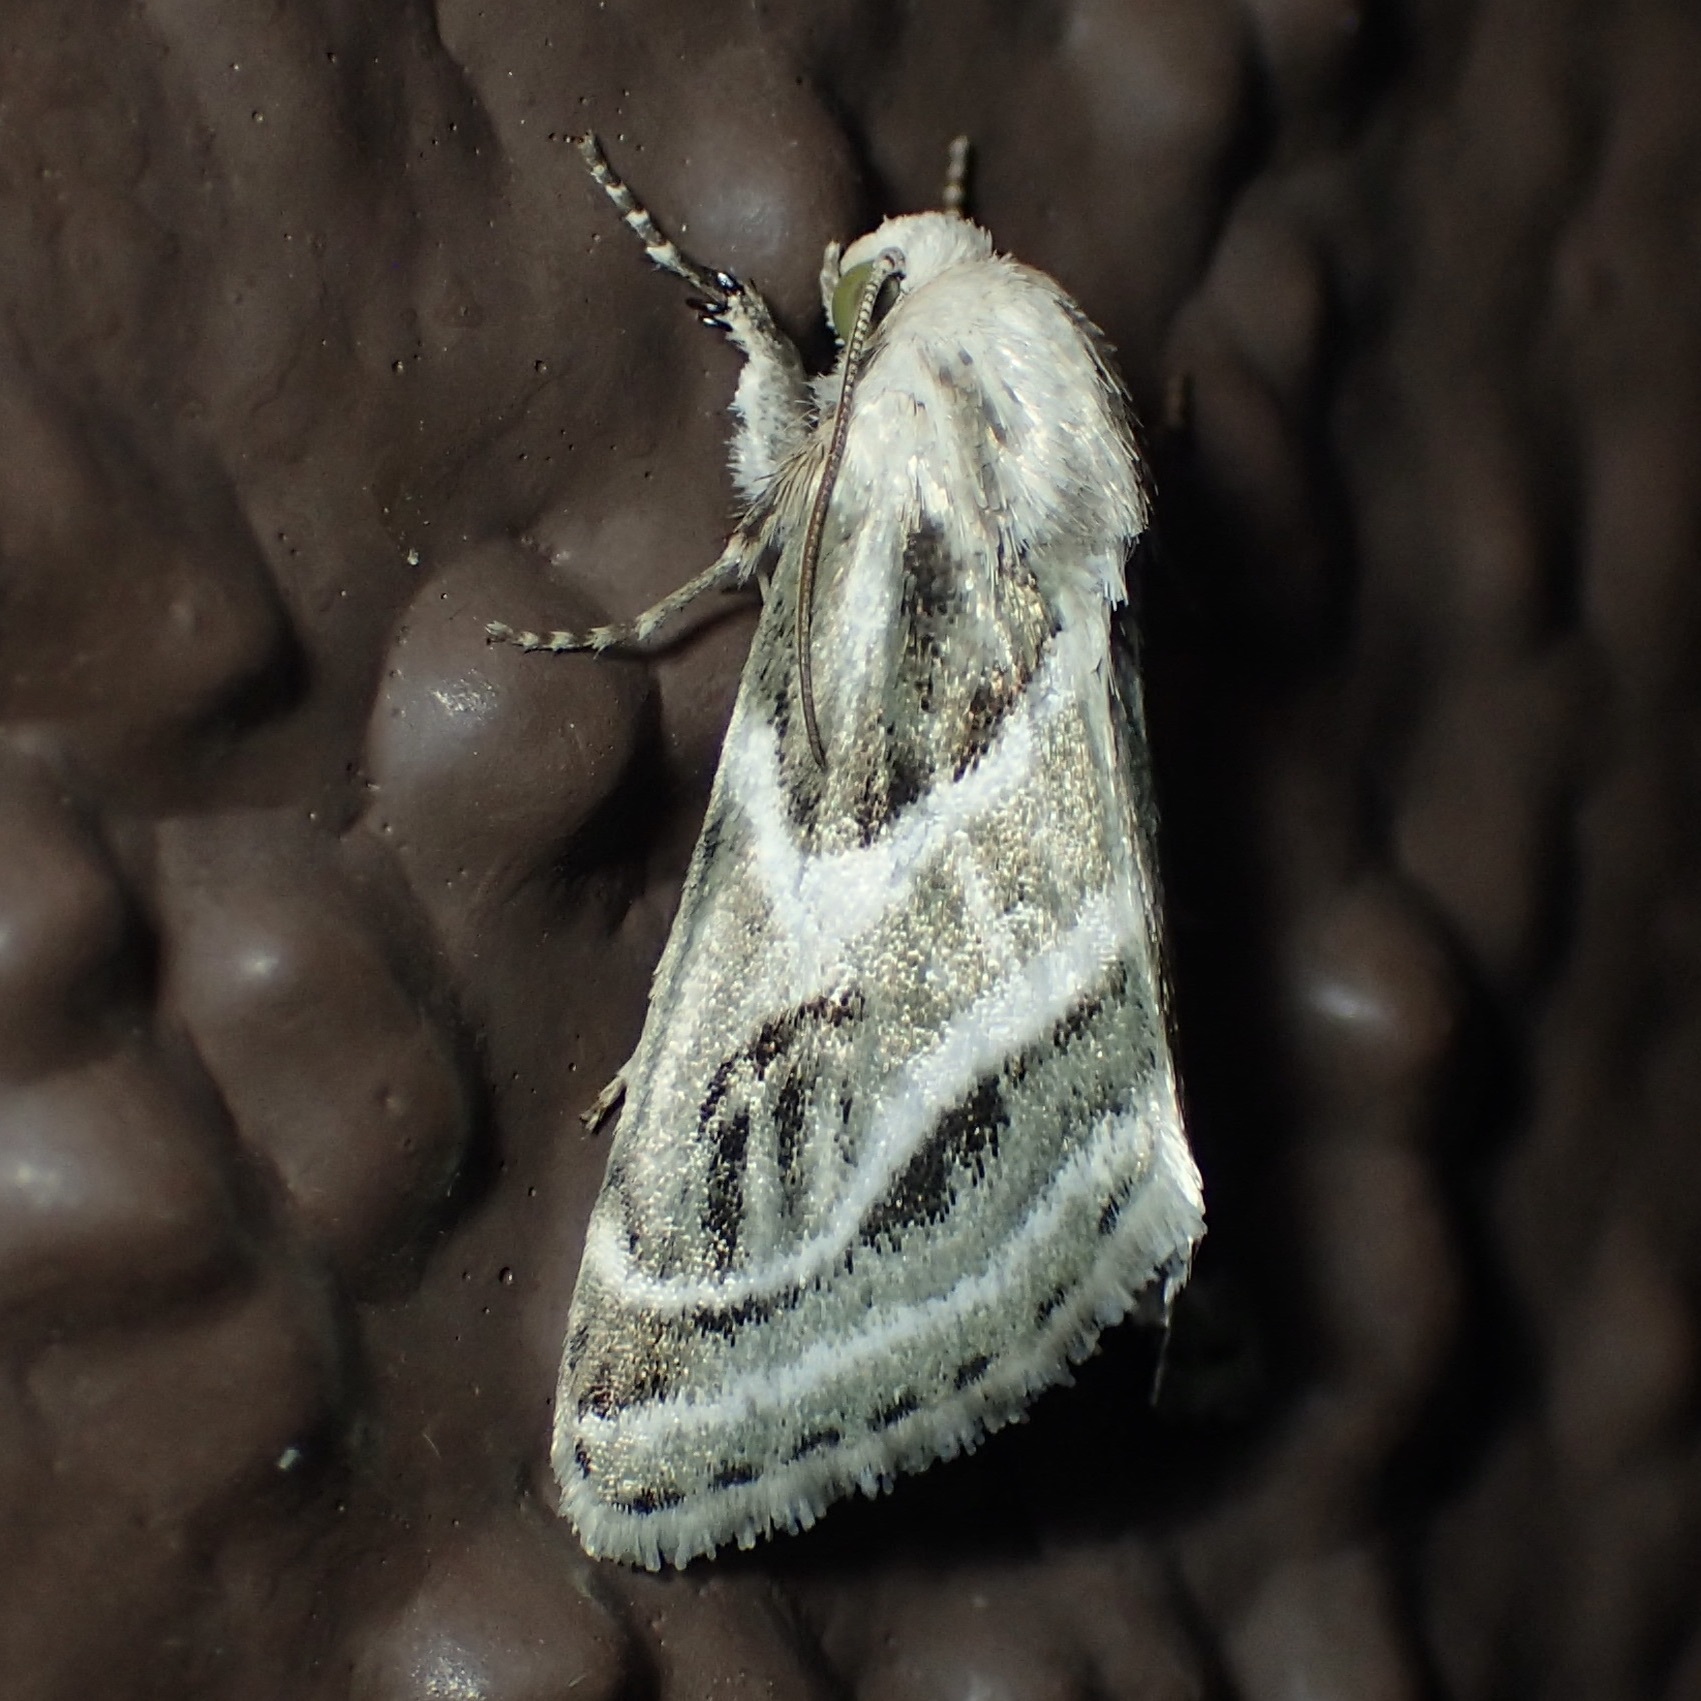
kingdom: Animalia
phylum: Arthropoda
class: Insecta
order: Lepidoptera
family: Noctuidae
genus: Schinia
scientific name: Schinia accessa
